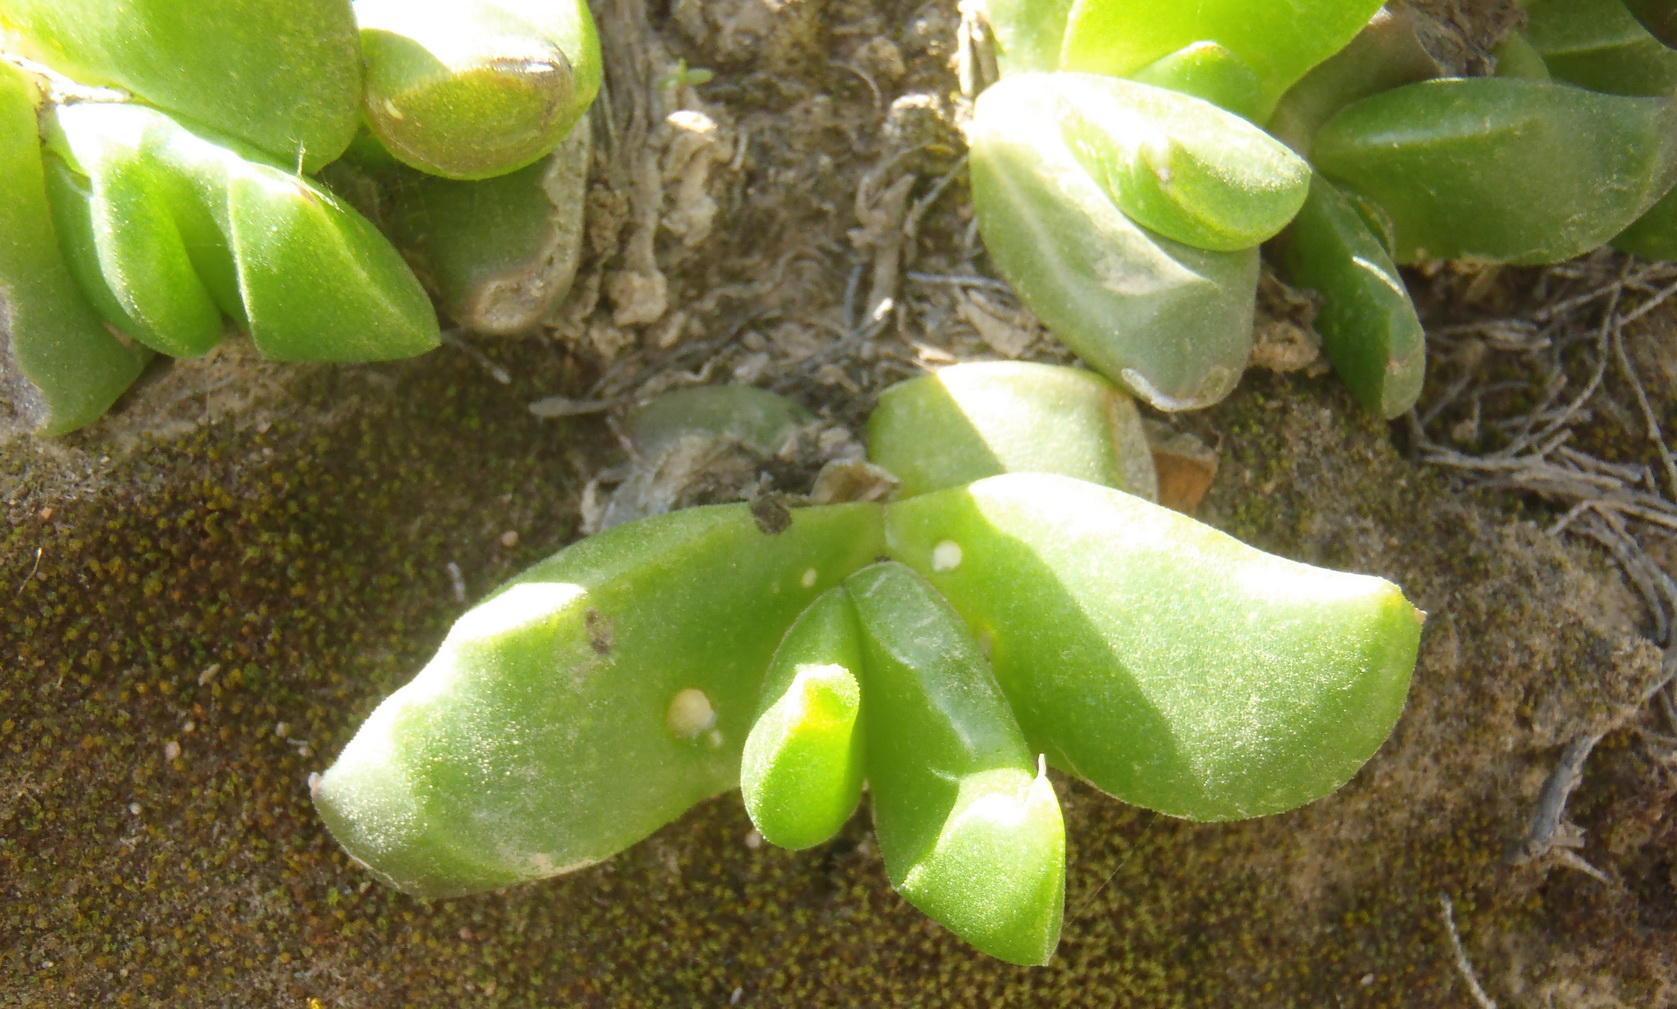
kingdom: Plantae
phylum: Tracheophyta
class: Magnoliopsida
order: Caryophyllales
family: Aizoaceae
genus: Glottiphyllum
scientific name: Glottiphyllum depressum
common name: Fig-marigold
